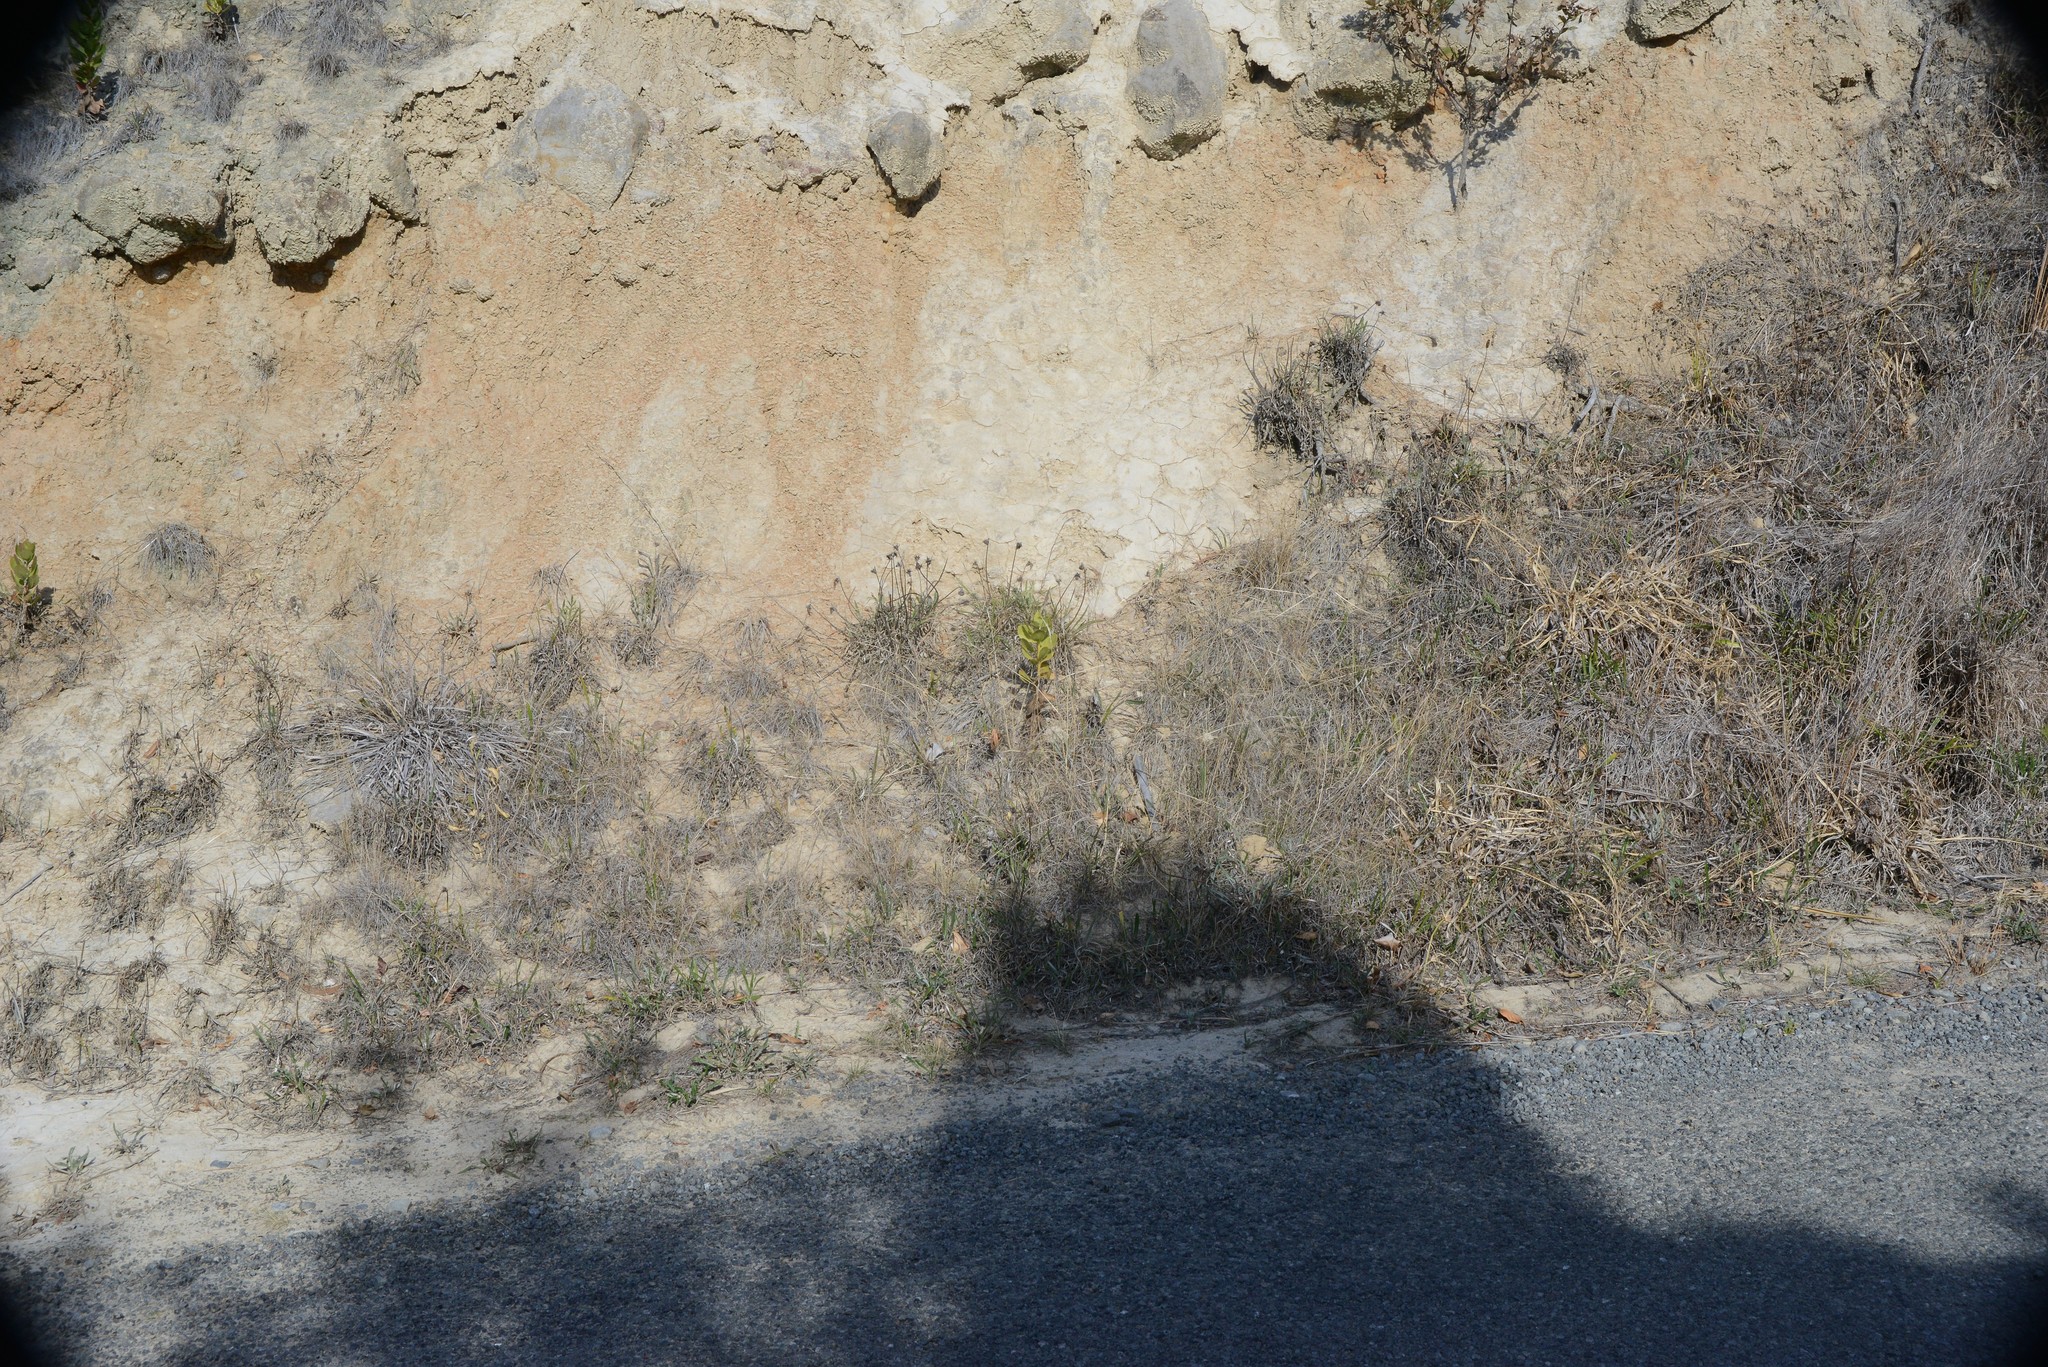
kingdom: Plantae
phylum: Tracheophyta
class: Magnoliopsida
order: Asterales
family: Asteraceae
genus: Osteospermum
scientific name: Osteospermum moniliferum
